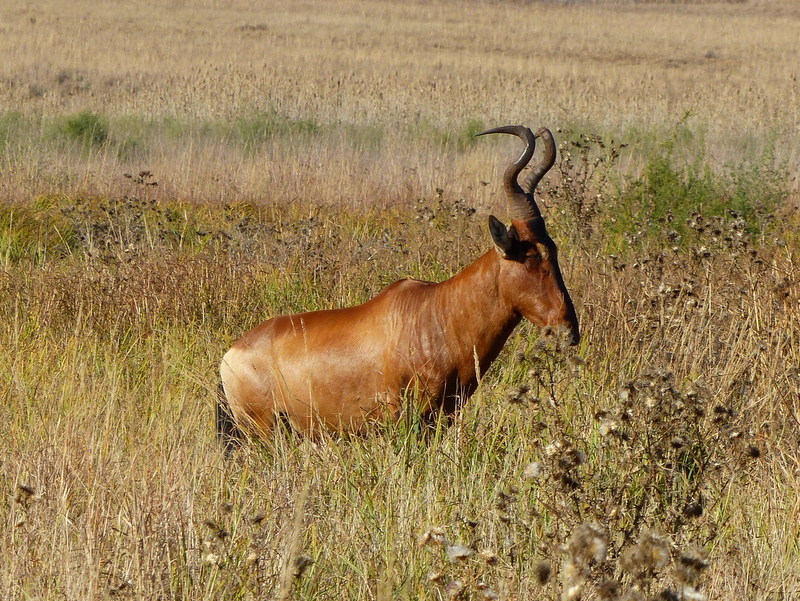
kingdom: Animalia
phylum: Chordata
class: Mammalia
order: Artiodactyla
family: Bovidae
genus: Alcelaphus
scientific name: Alcelaphus caama
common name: Red hartebeest
